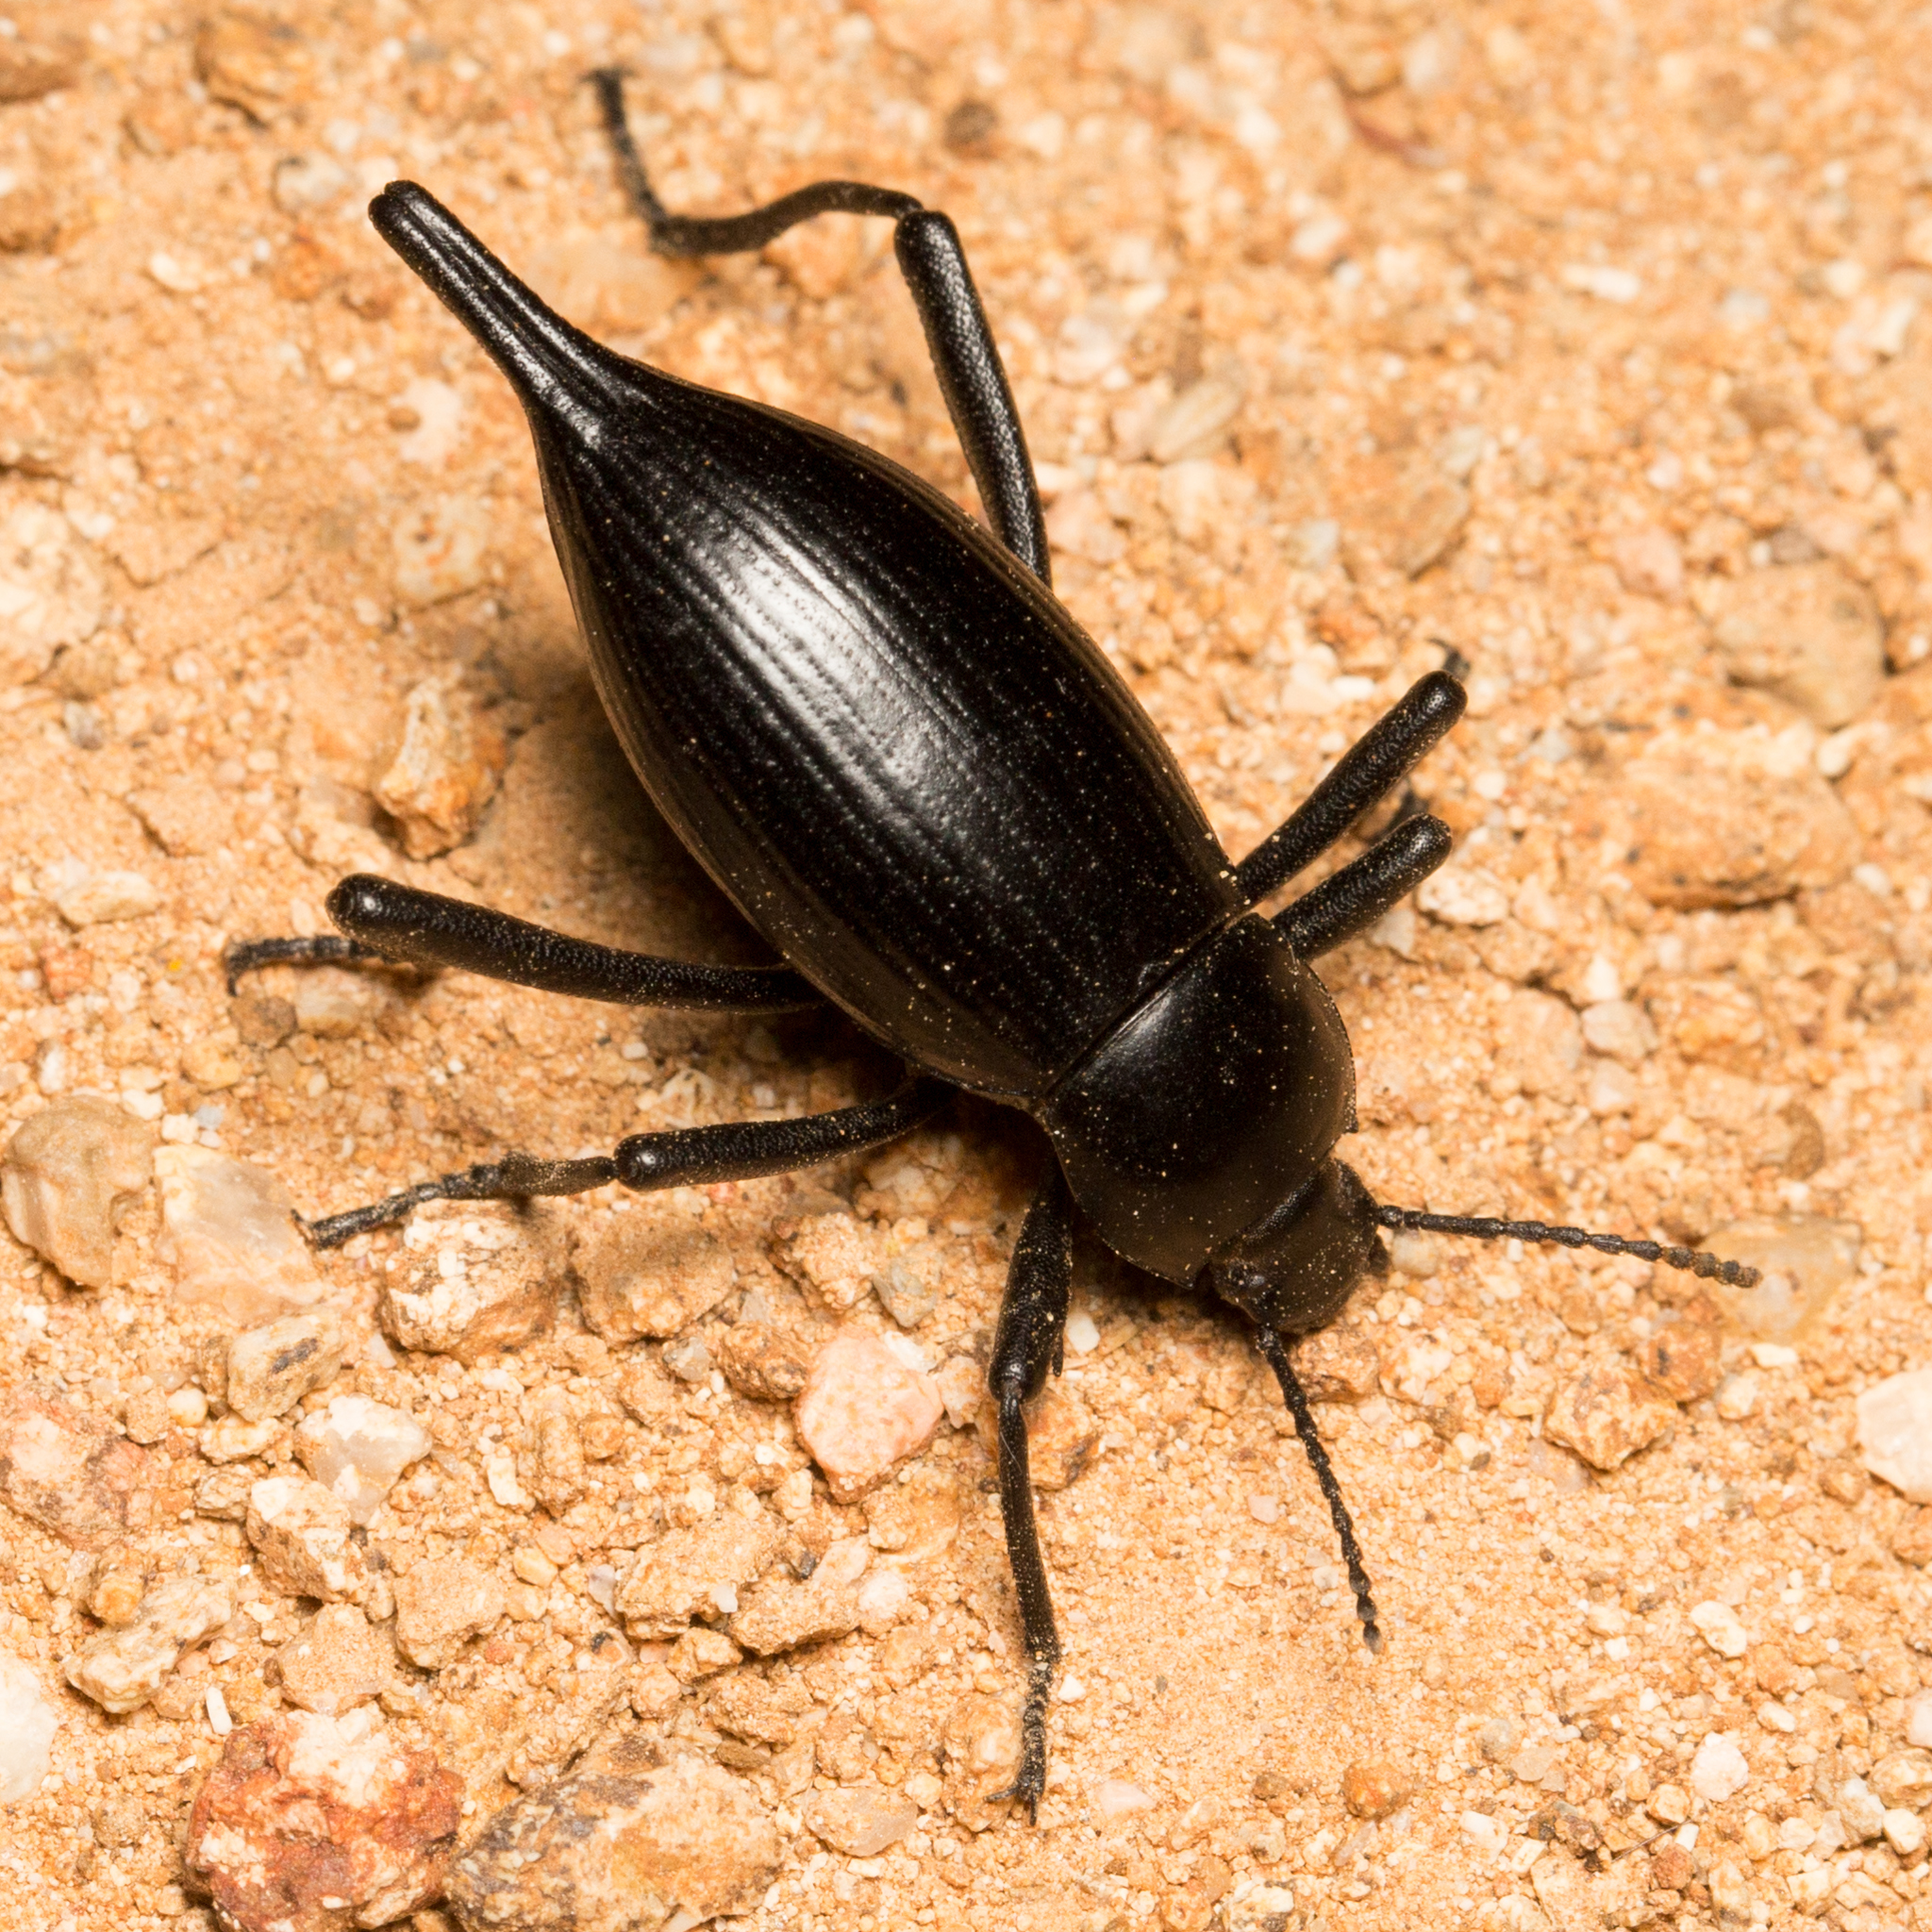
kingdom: Animalia
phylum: Arthropoda
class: Insecta
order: Coleoptera
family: Tenebrionidae
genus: Eleodes
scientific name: Eleodes eschscholtzii
